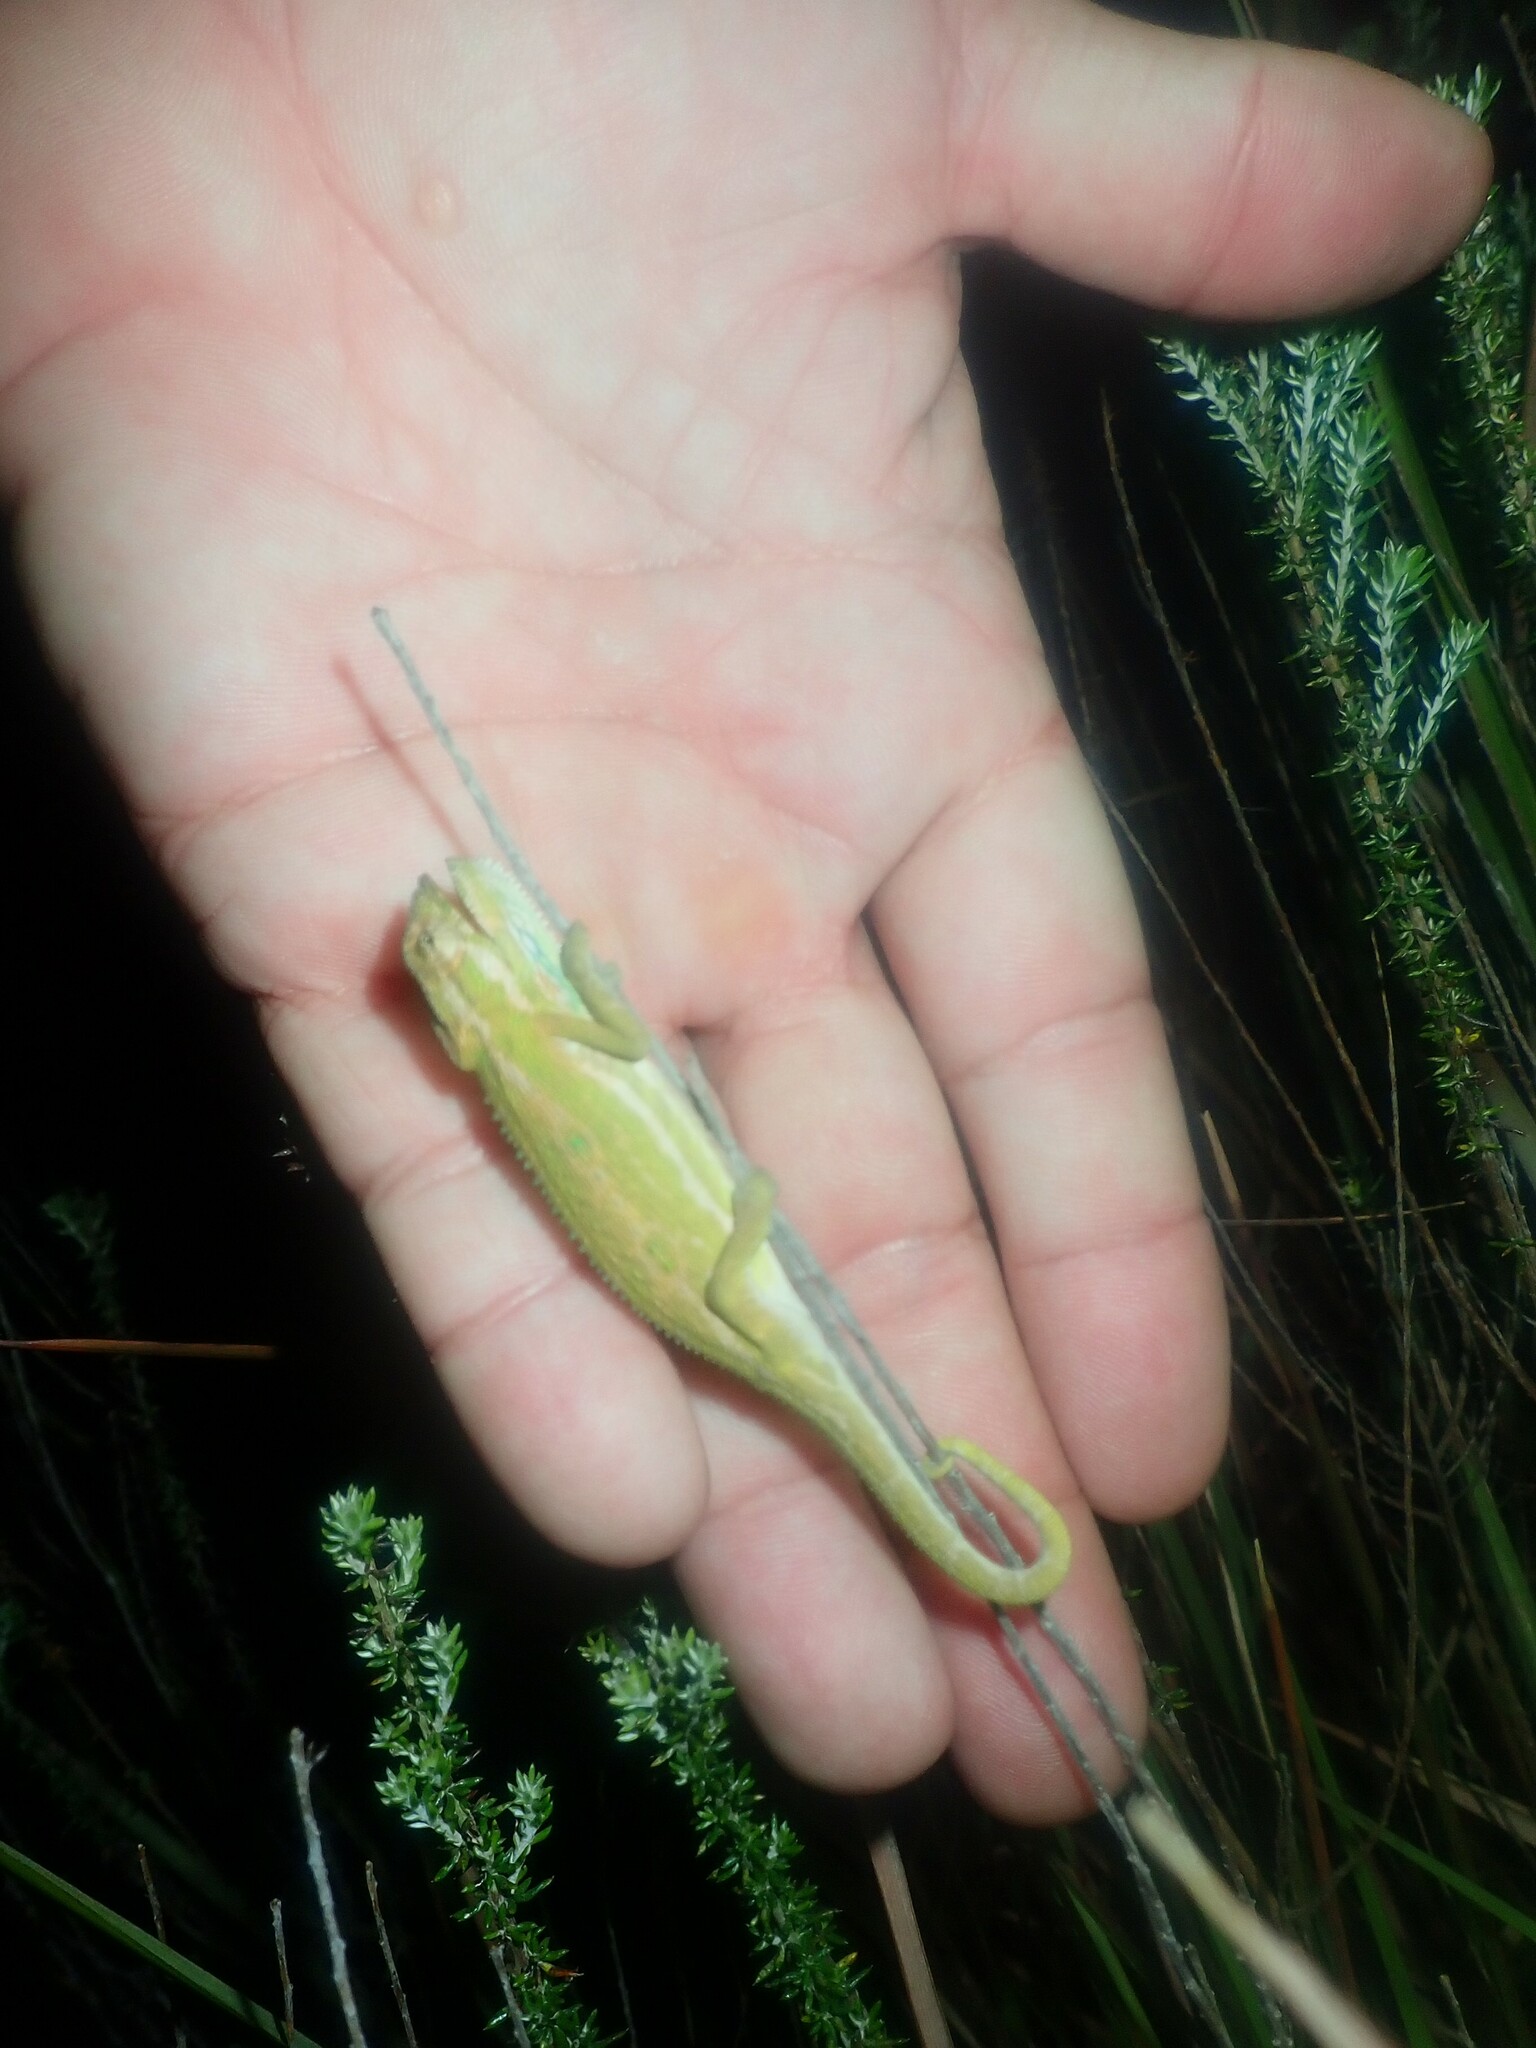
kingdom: Animalia
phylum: Chordata
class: Squamata
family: Chamaeleonidae
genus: Bradypodion
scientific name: Bradypodion pumilum
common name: Cape dwarf chameleon
